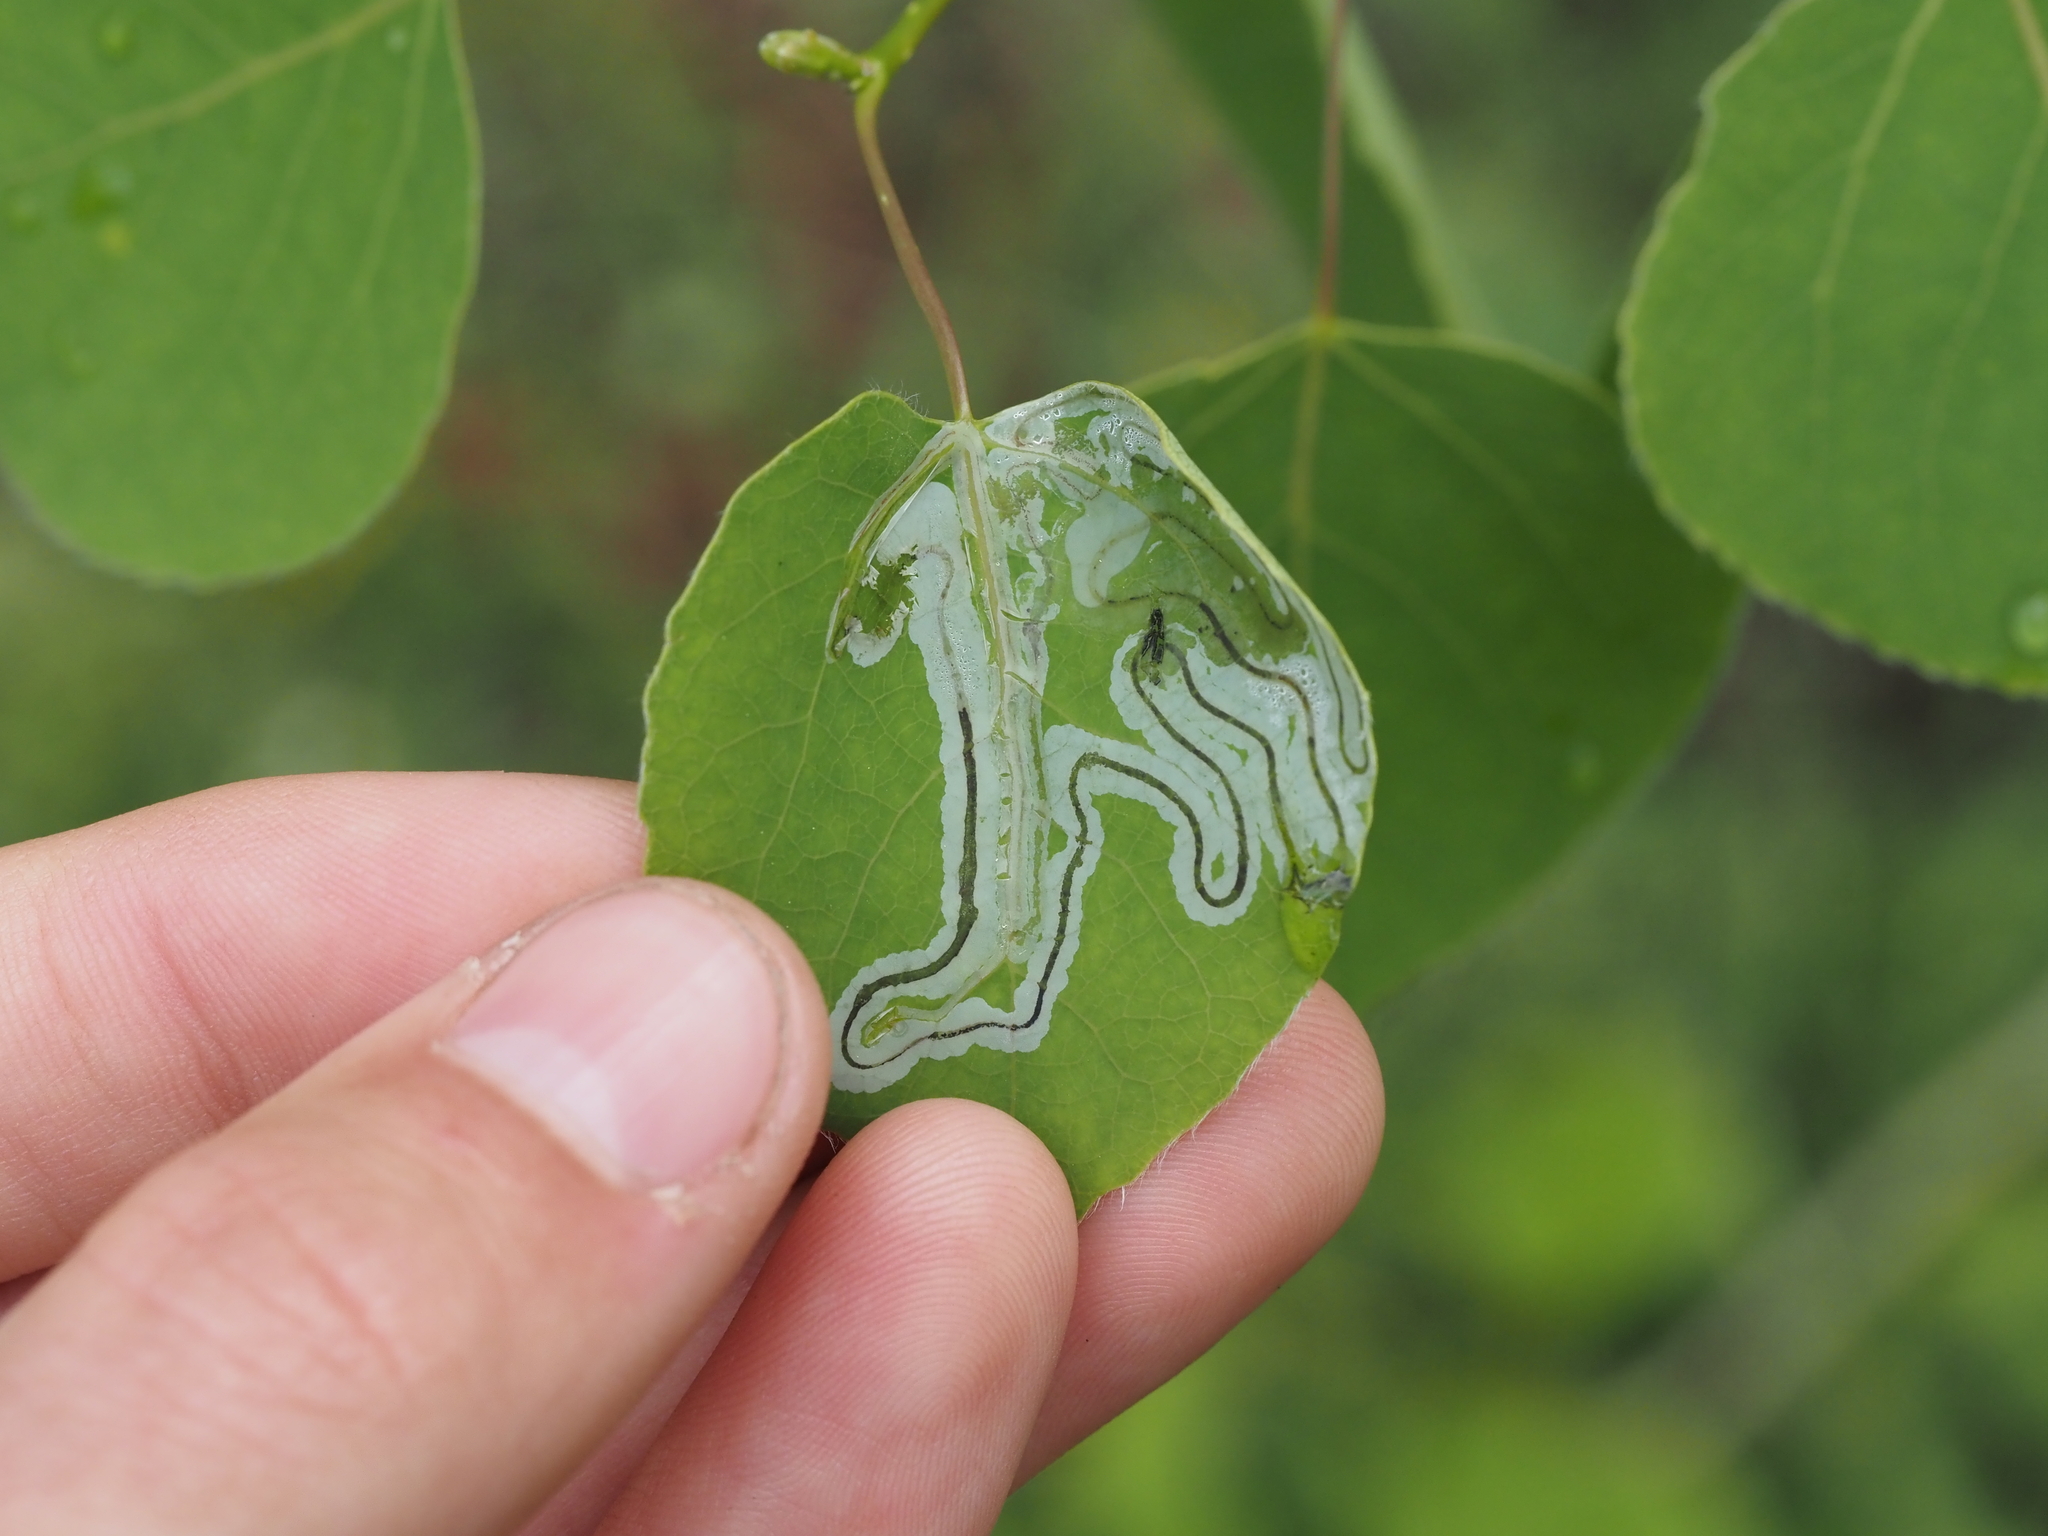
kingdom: Animalia
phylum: Arthropoda
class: Insecta
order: Lepidoptera
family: Gracillariidae
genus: Phyllocnistis
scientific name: Phyllocnistis populiella
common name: Aspen serpentine leafminer moth
